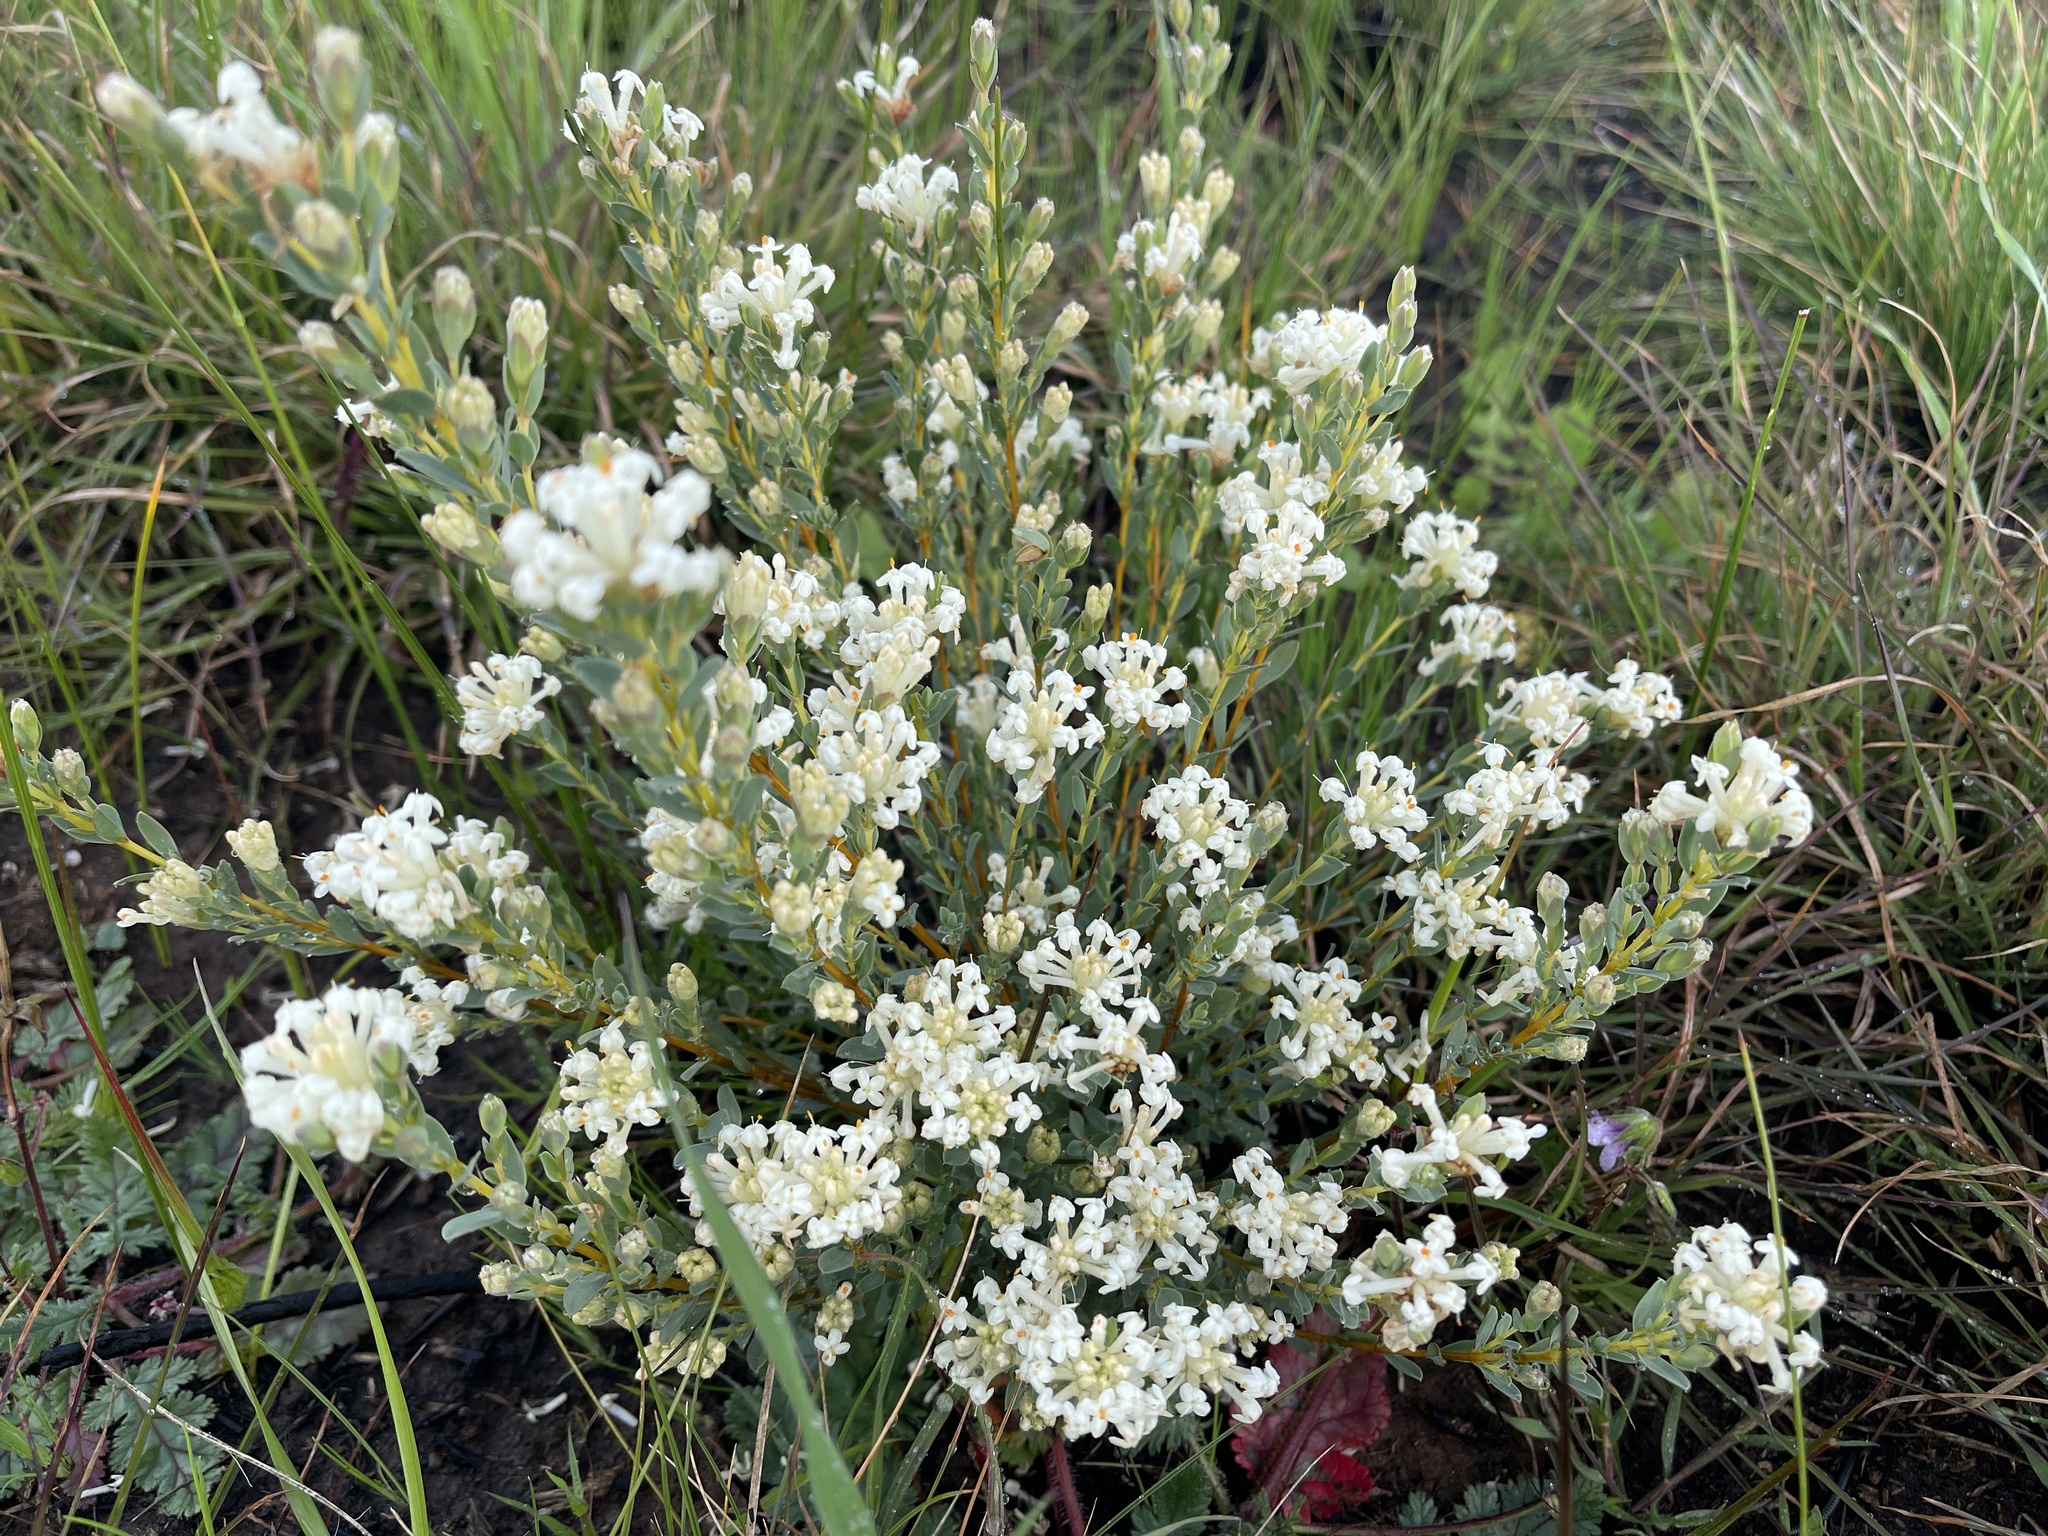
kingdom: Plantae
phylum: Tracheophyta
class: Magnoliopsida
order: Malvales
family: Thymelaeaceae
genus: Pimelea
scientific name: Pimelea glauca
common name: Smooth riceflower
